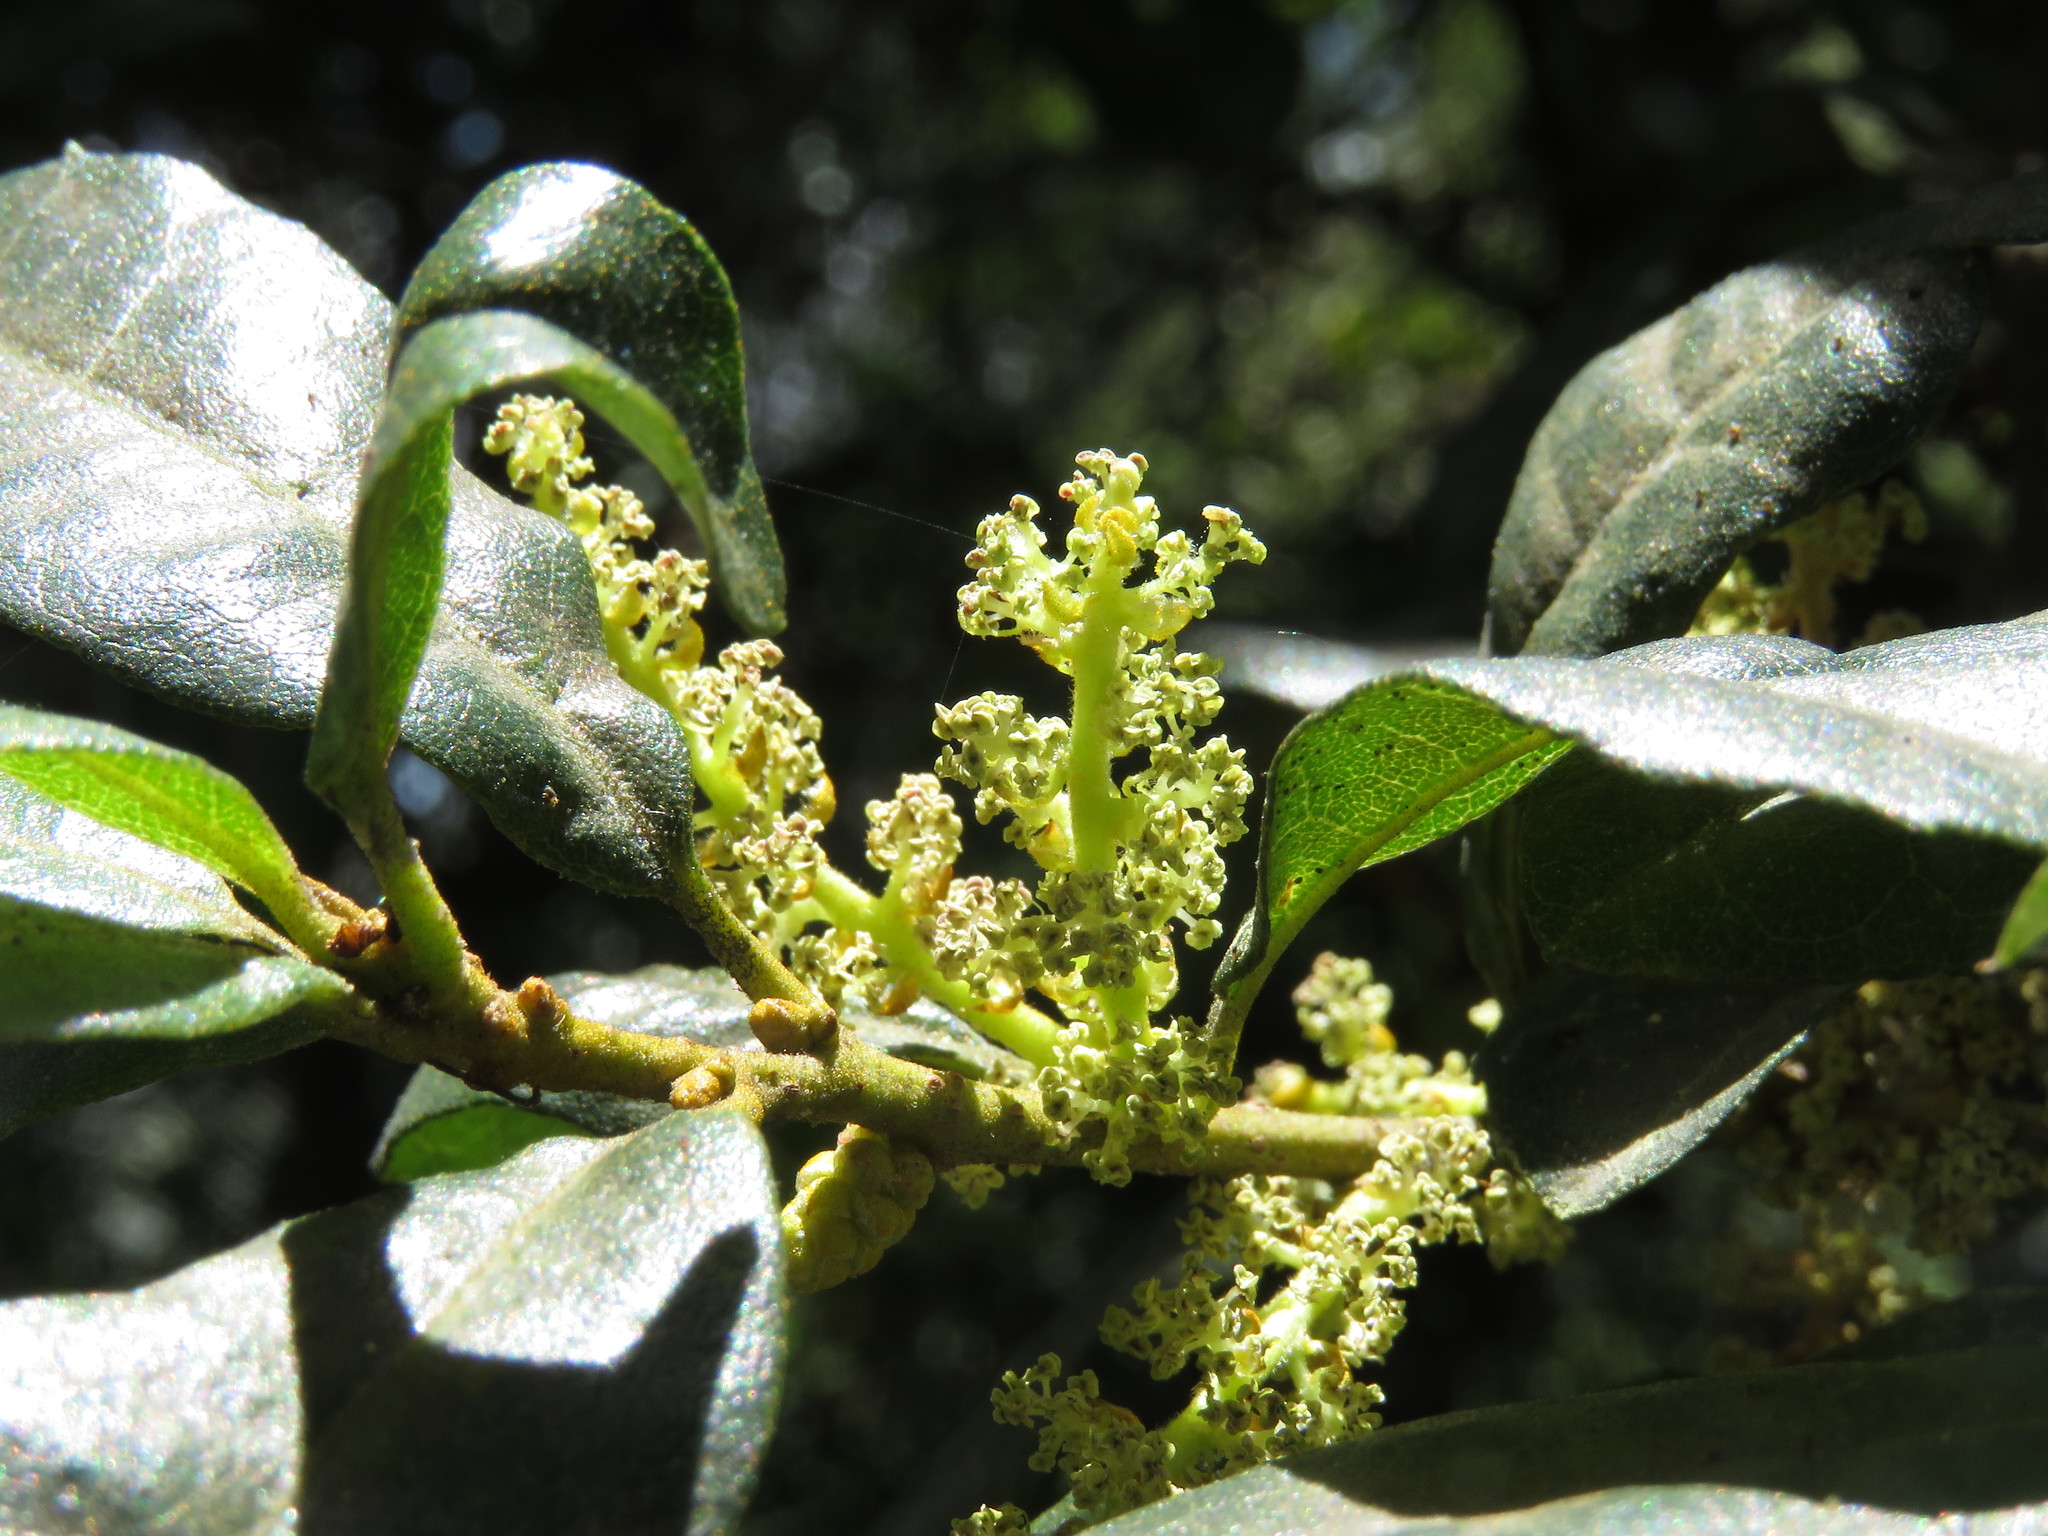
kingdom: Plantae
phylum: Tracheophyta
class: Magnoliopsida
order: Fagales
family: Myricaceae
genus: Morella
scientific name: Morella parvifolia
